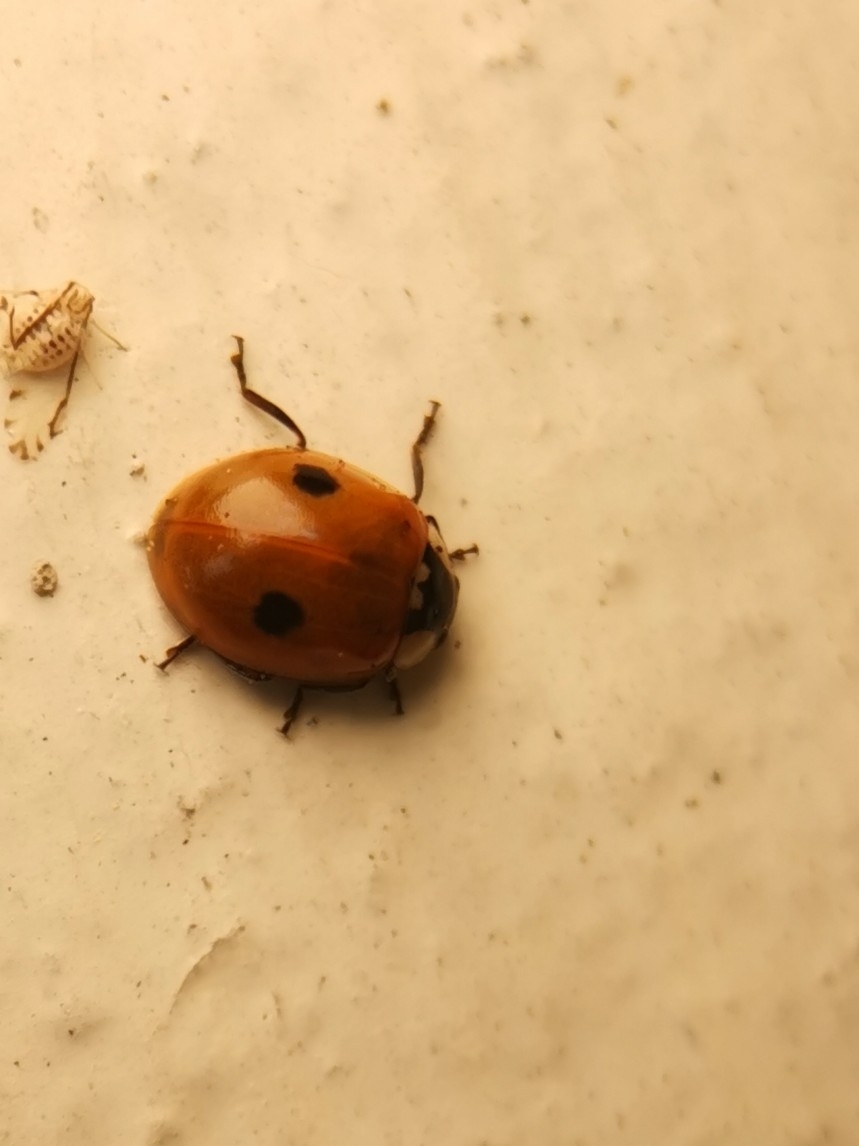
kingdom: Animalia
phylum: Arthropoda
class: Insecta
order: Coleoptera
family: Coccinellidae
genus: Adalia
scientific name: Adalia bipunctata
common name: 2-spot ladybird
